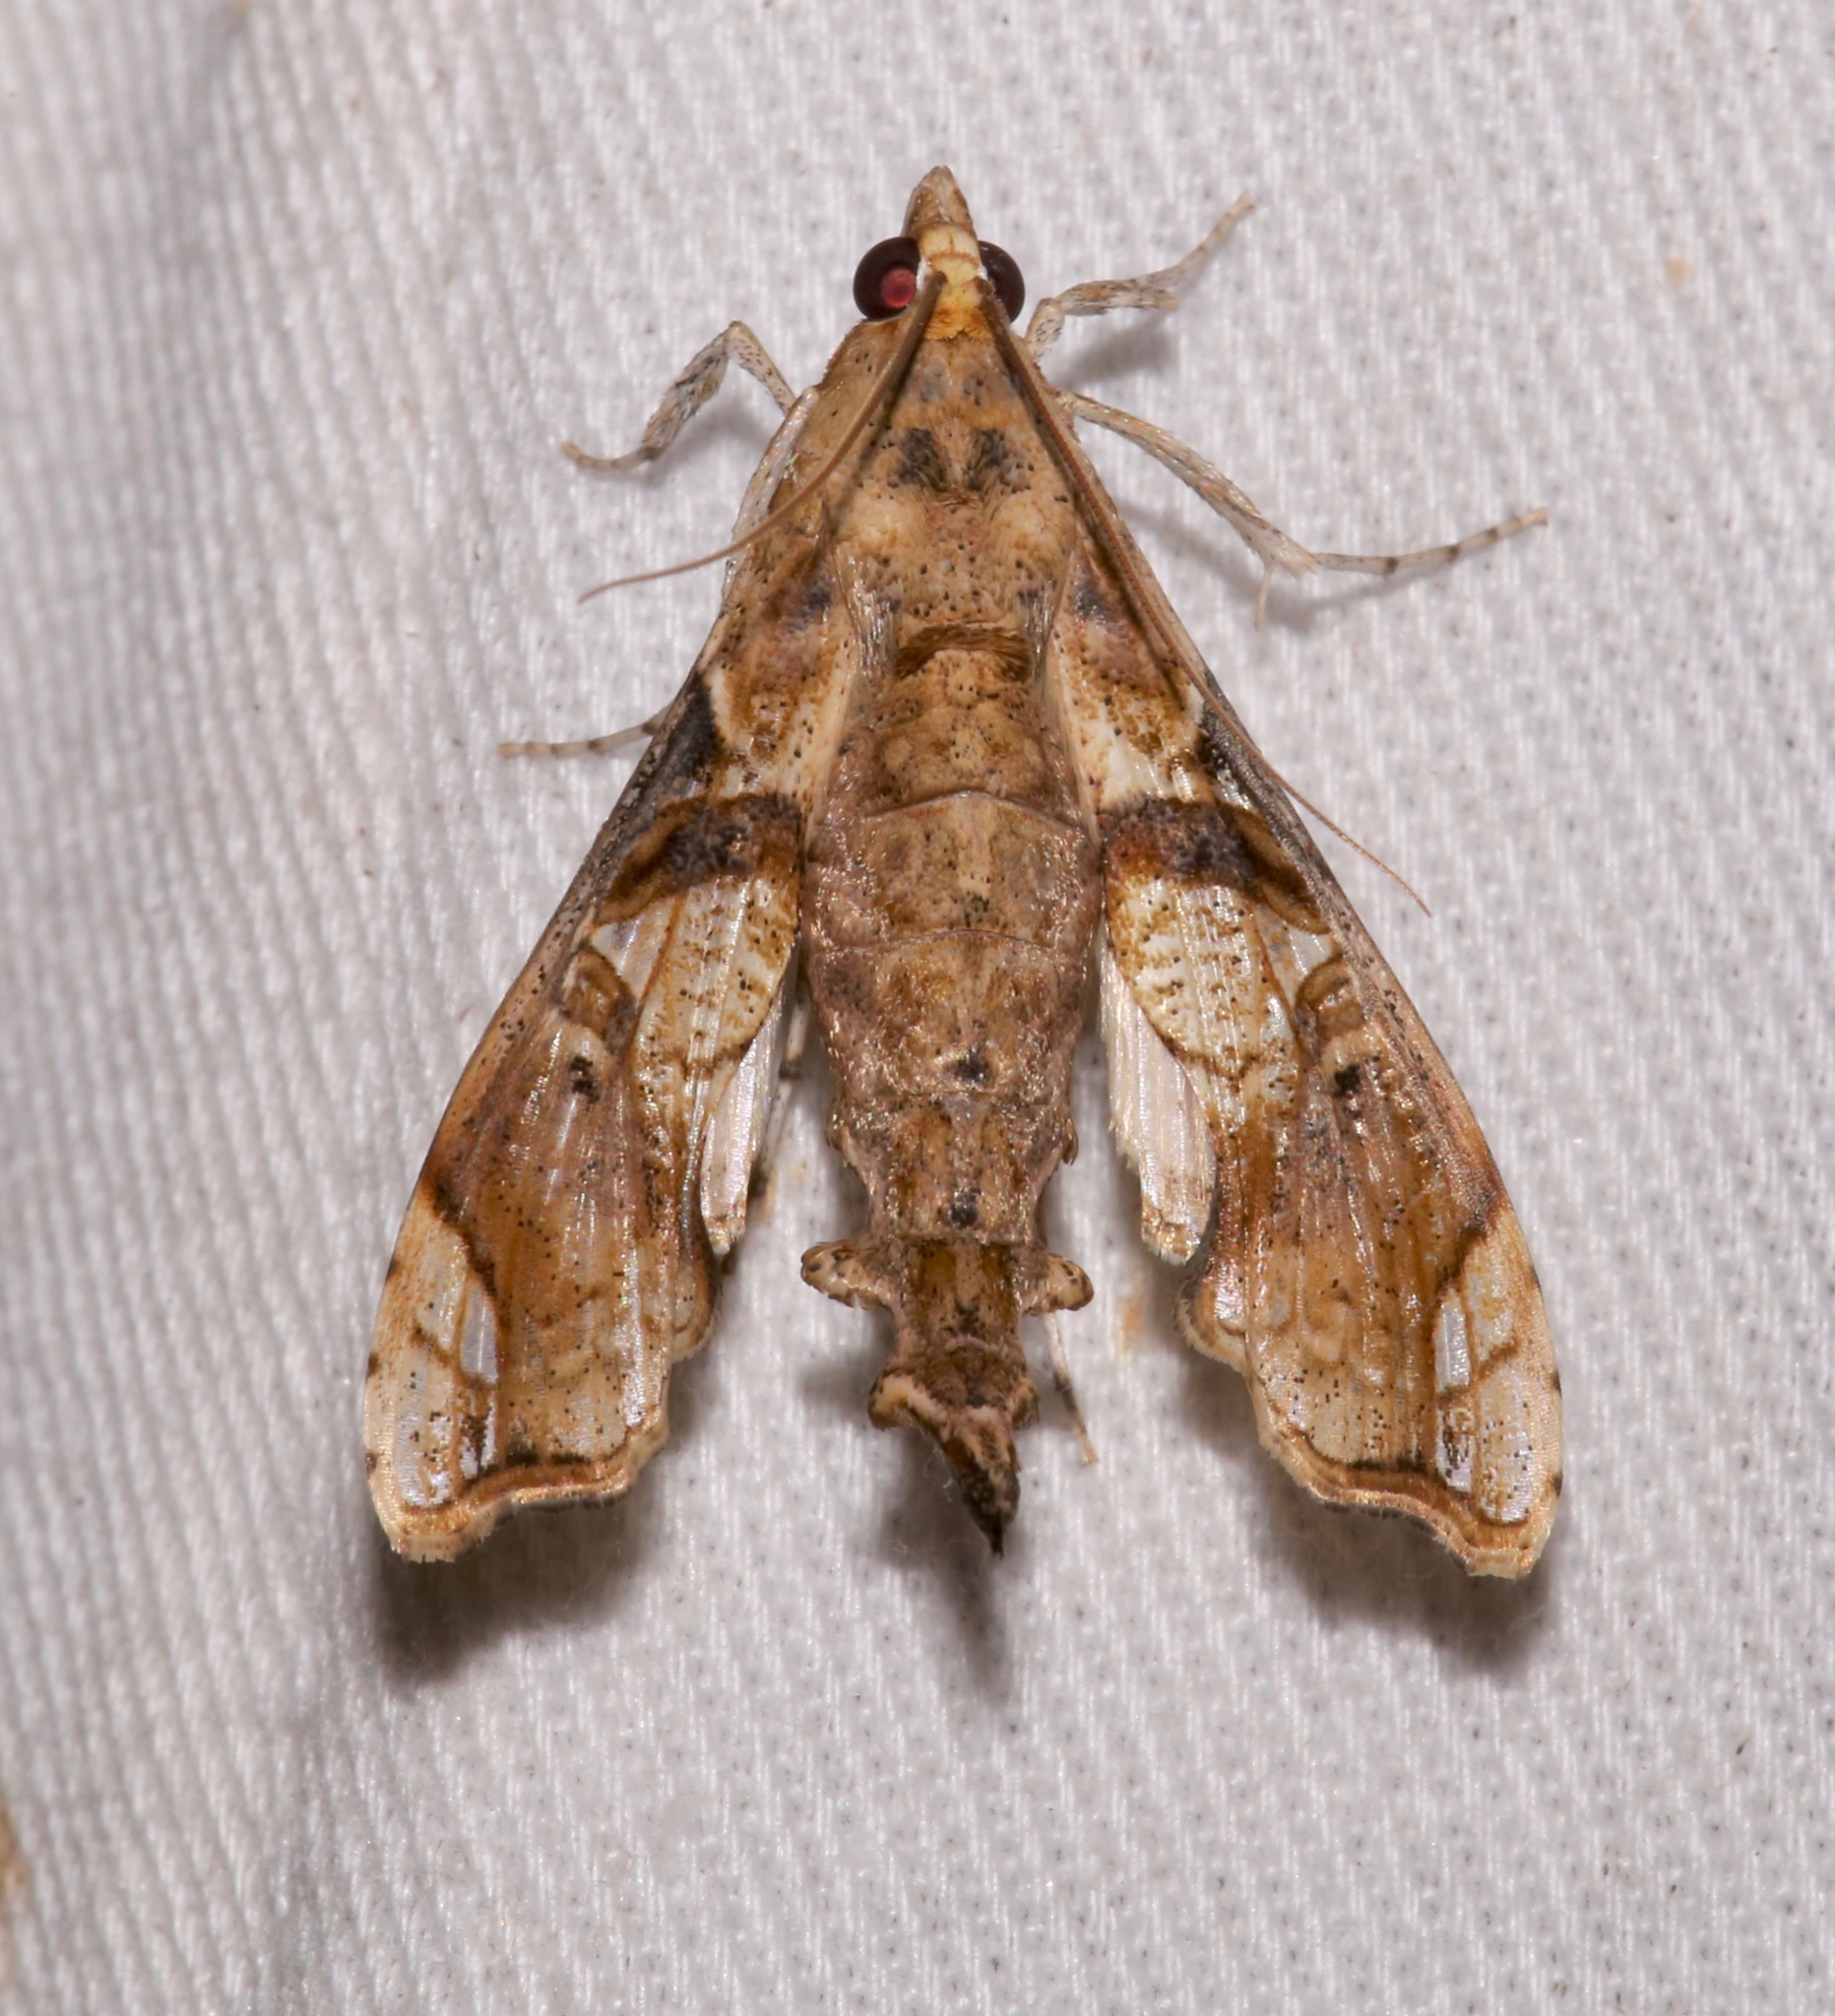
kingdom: Animalia
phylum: Arthropoda
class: Insecta
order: Lepidoptera
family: Crambidae
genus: Terastia
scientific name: Terastia meticulosalis
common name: Moth
